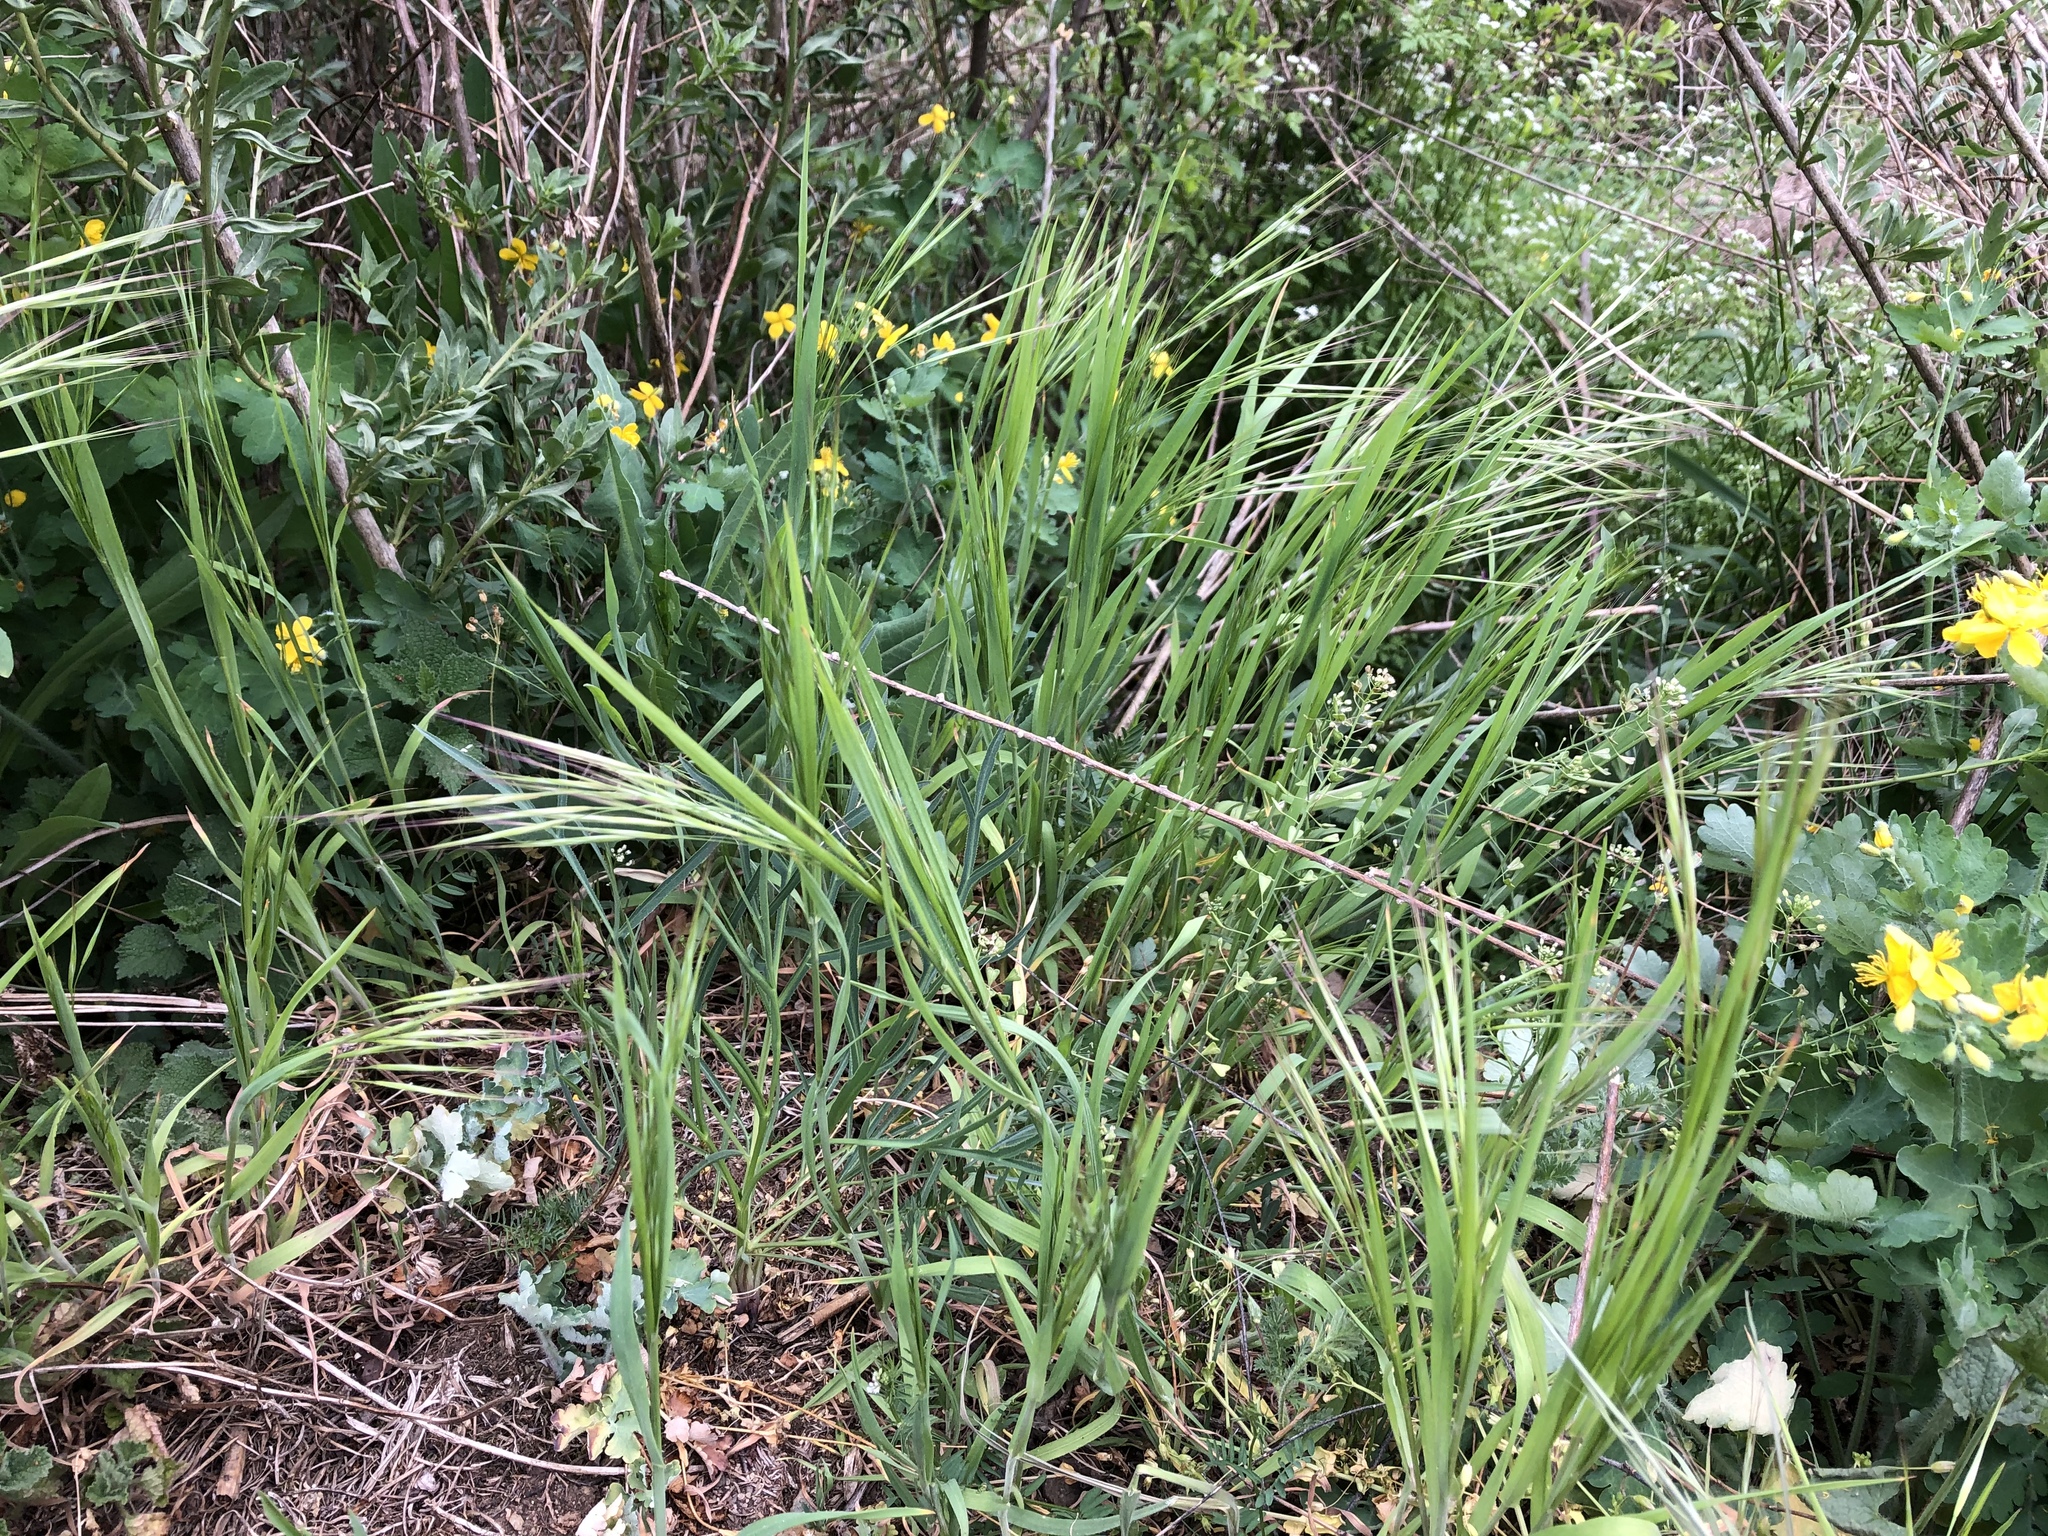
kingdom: Plantae
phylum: Tracheophyta
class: Liliopsida
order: Poales
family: Poaceae
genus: Bromus
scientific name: Bromus sterilis
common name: Poverty brome
